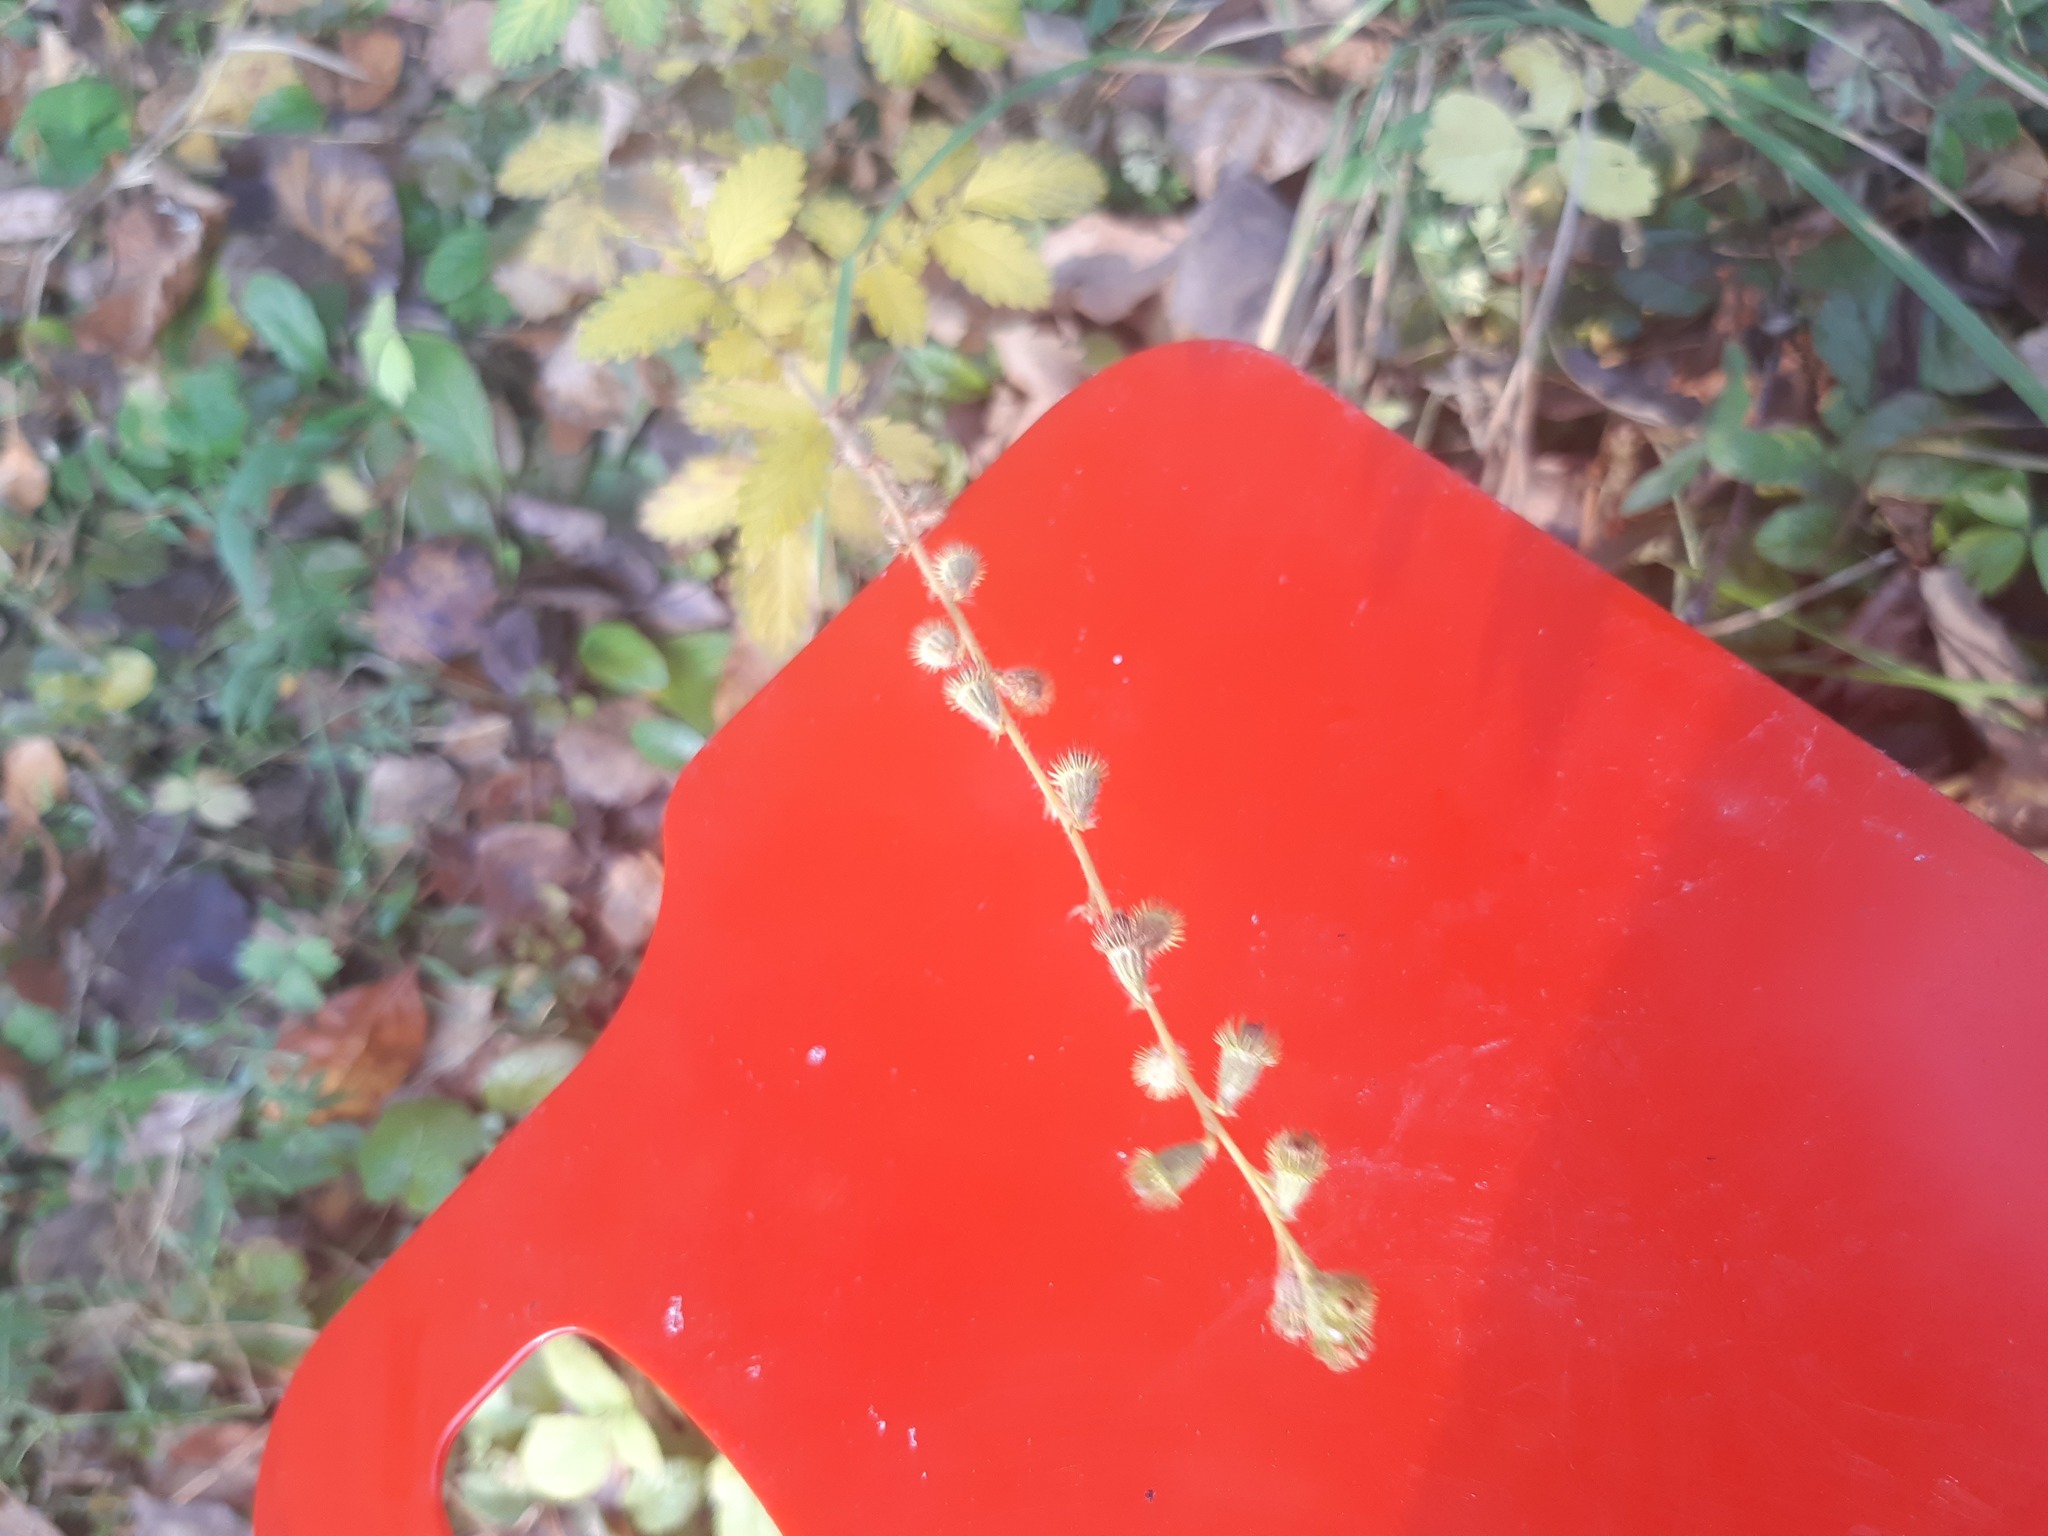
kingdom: Plantae
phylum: Tracheophyta
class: Magnoliopsida
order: Rosales
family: Rosaceae
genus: Agrimonia
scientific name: Agrimonia eupatoria
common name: Agrimony
